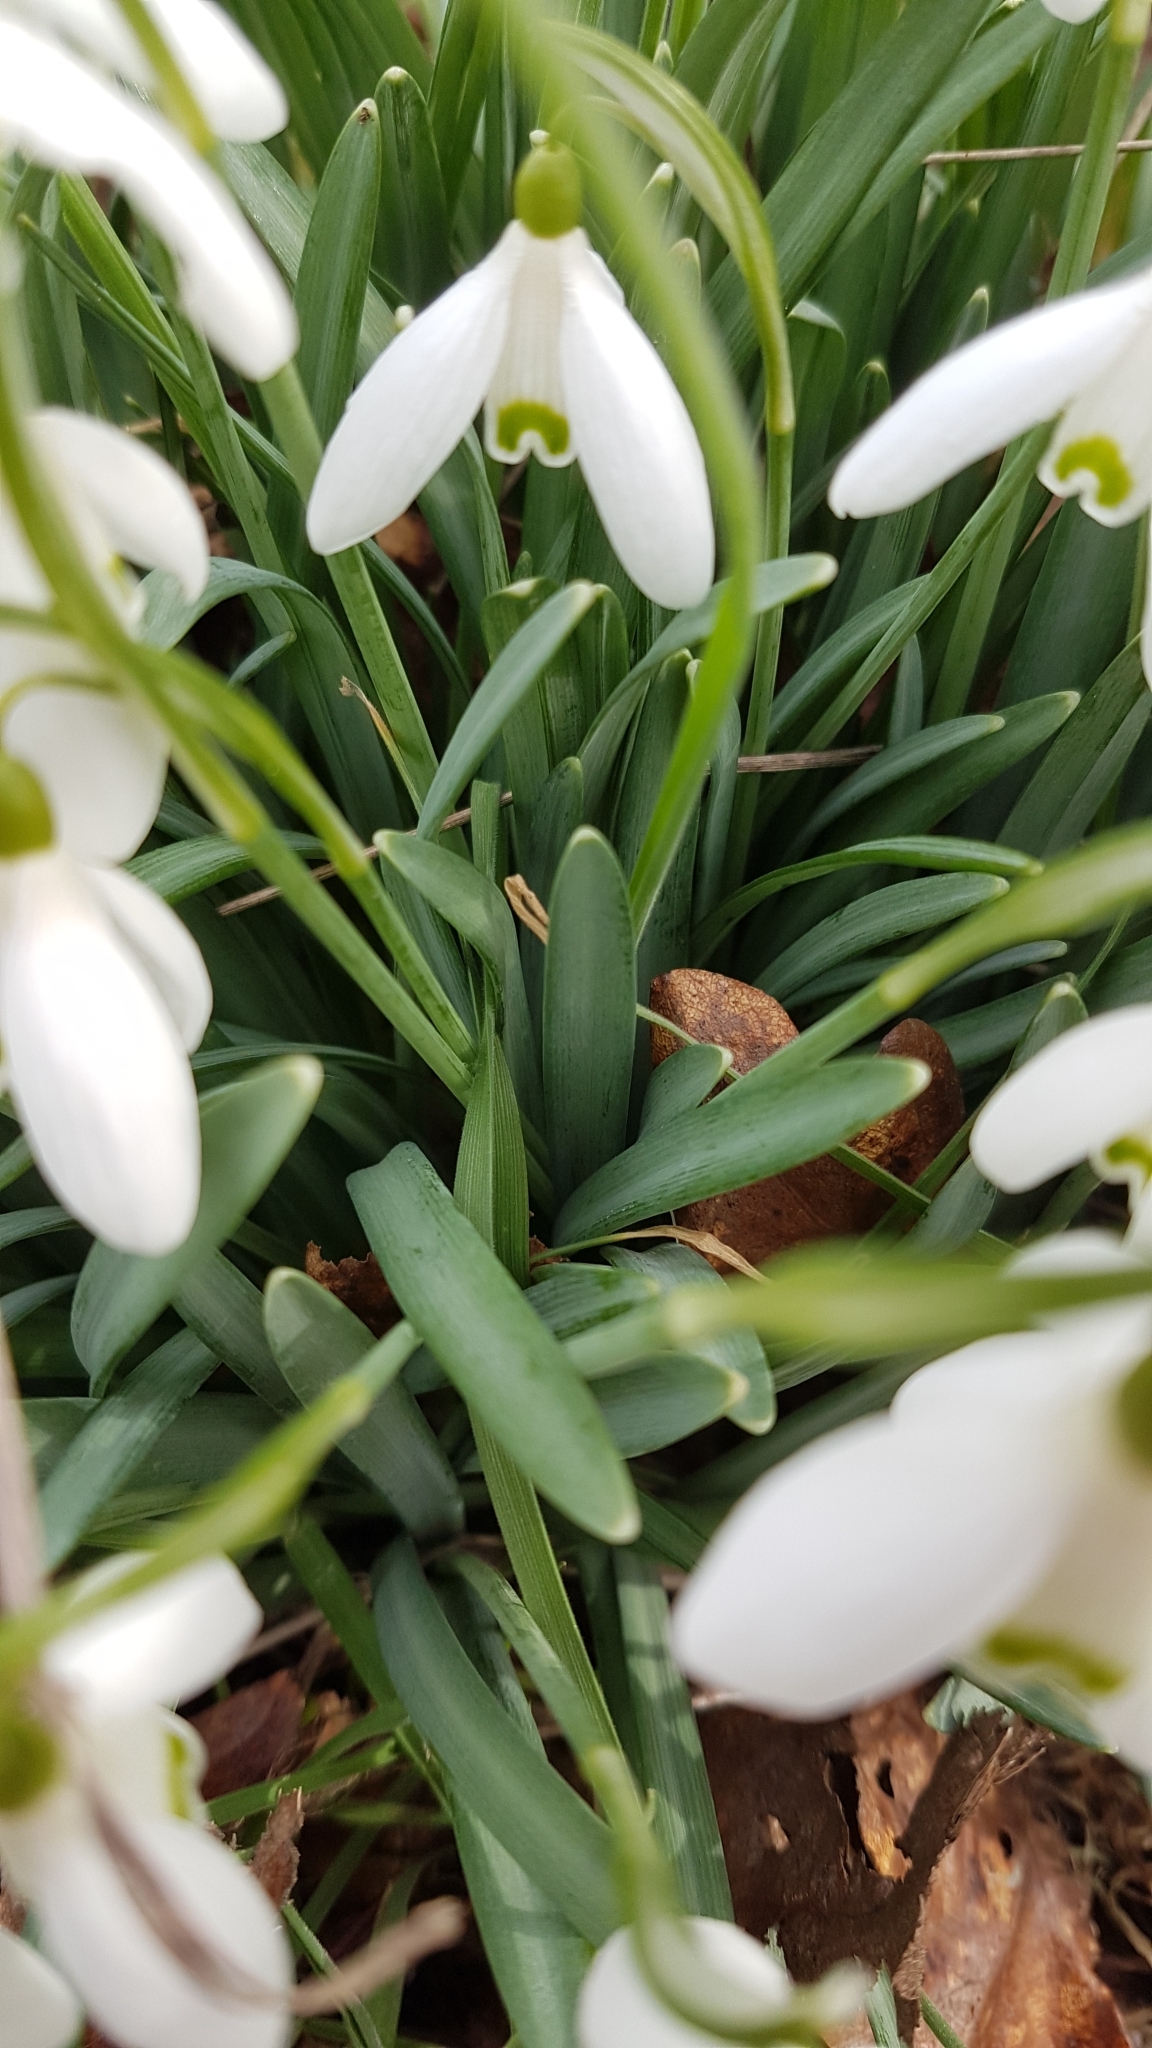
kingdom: Plantae
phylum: Tracheophyta
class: Liliopsida
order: Asparagales
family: Amaryllidaceae
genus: Galanthus
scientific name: Galanthus nivalis
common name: Snowdrop
